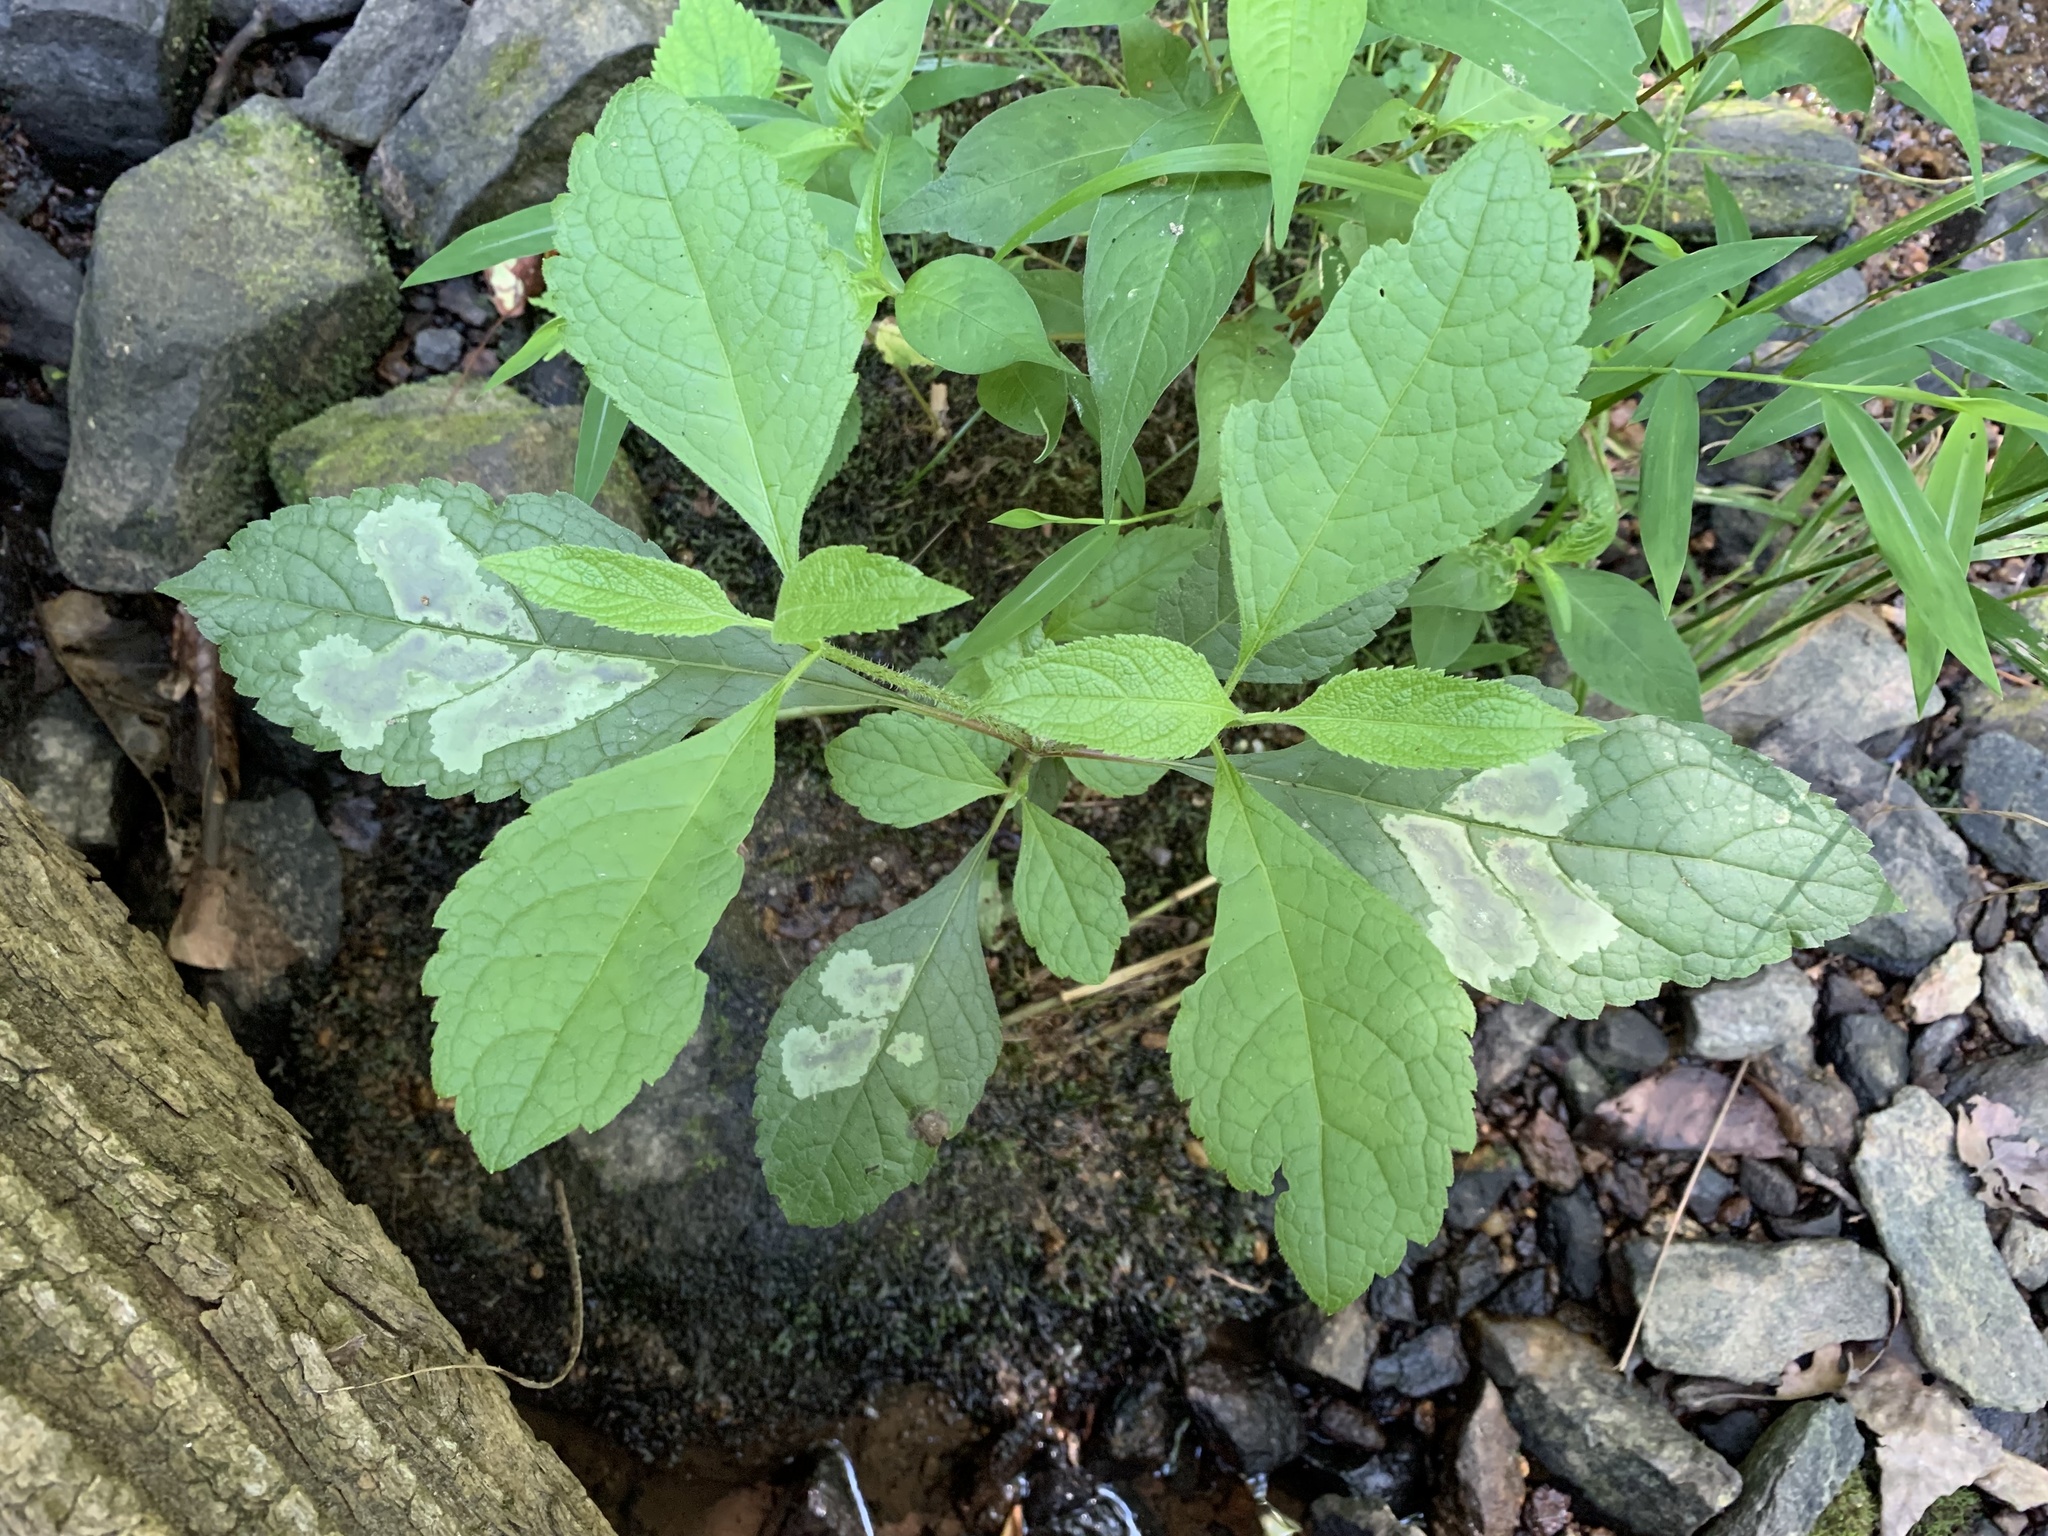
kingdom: Animalia
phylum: Arthropoda
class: Insecta
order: Diptera
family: Agromyzidae
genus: Calycomyza
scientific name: Calycomyza flavinotum
